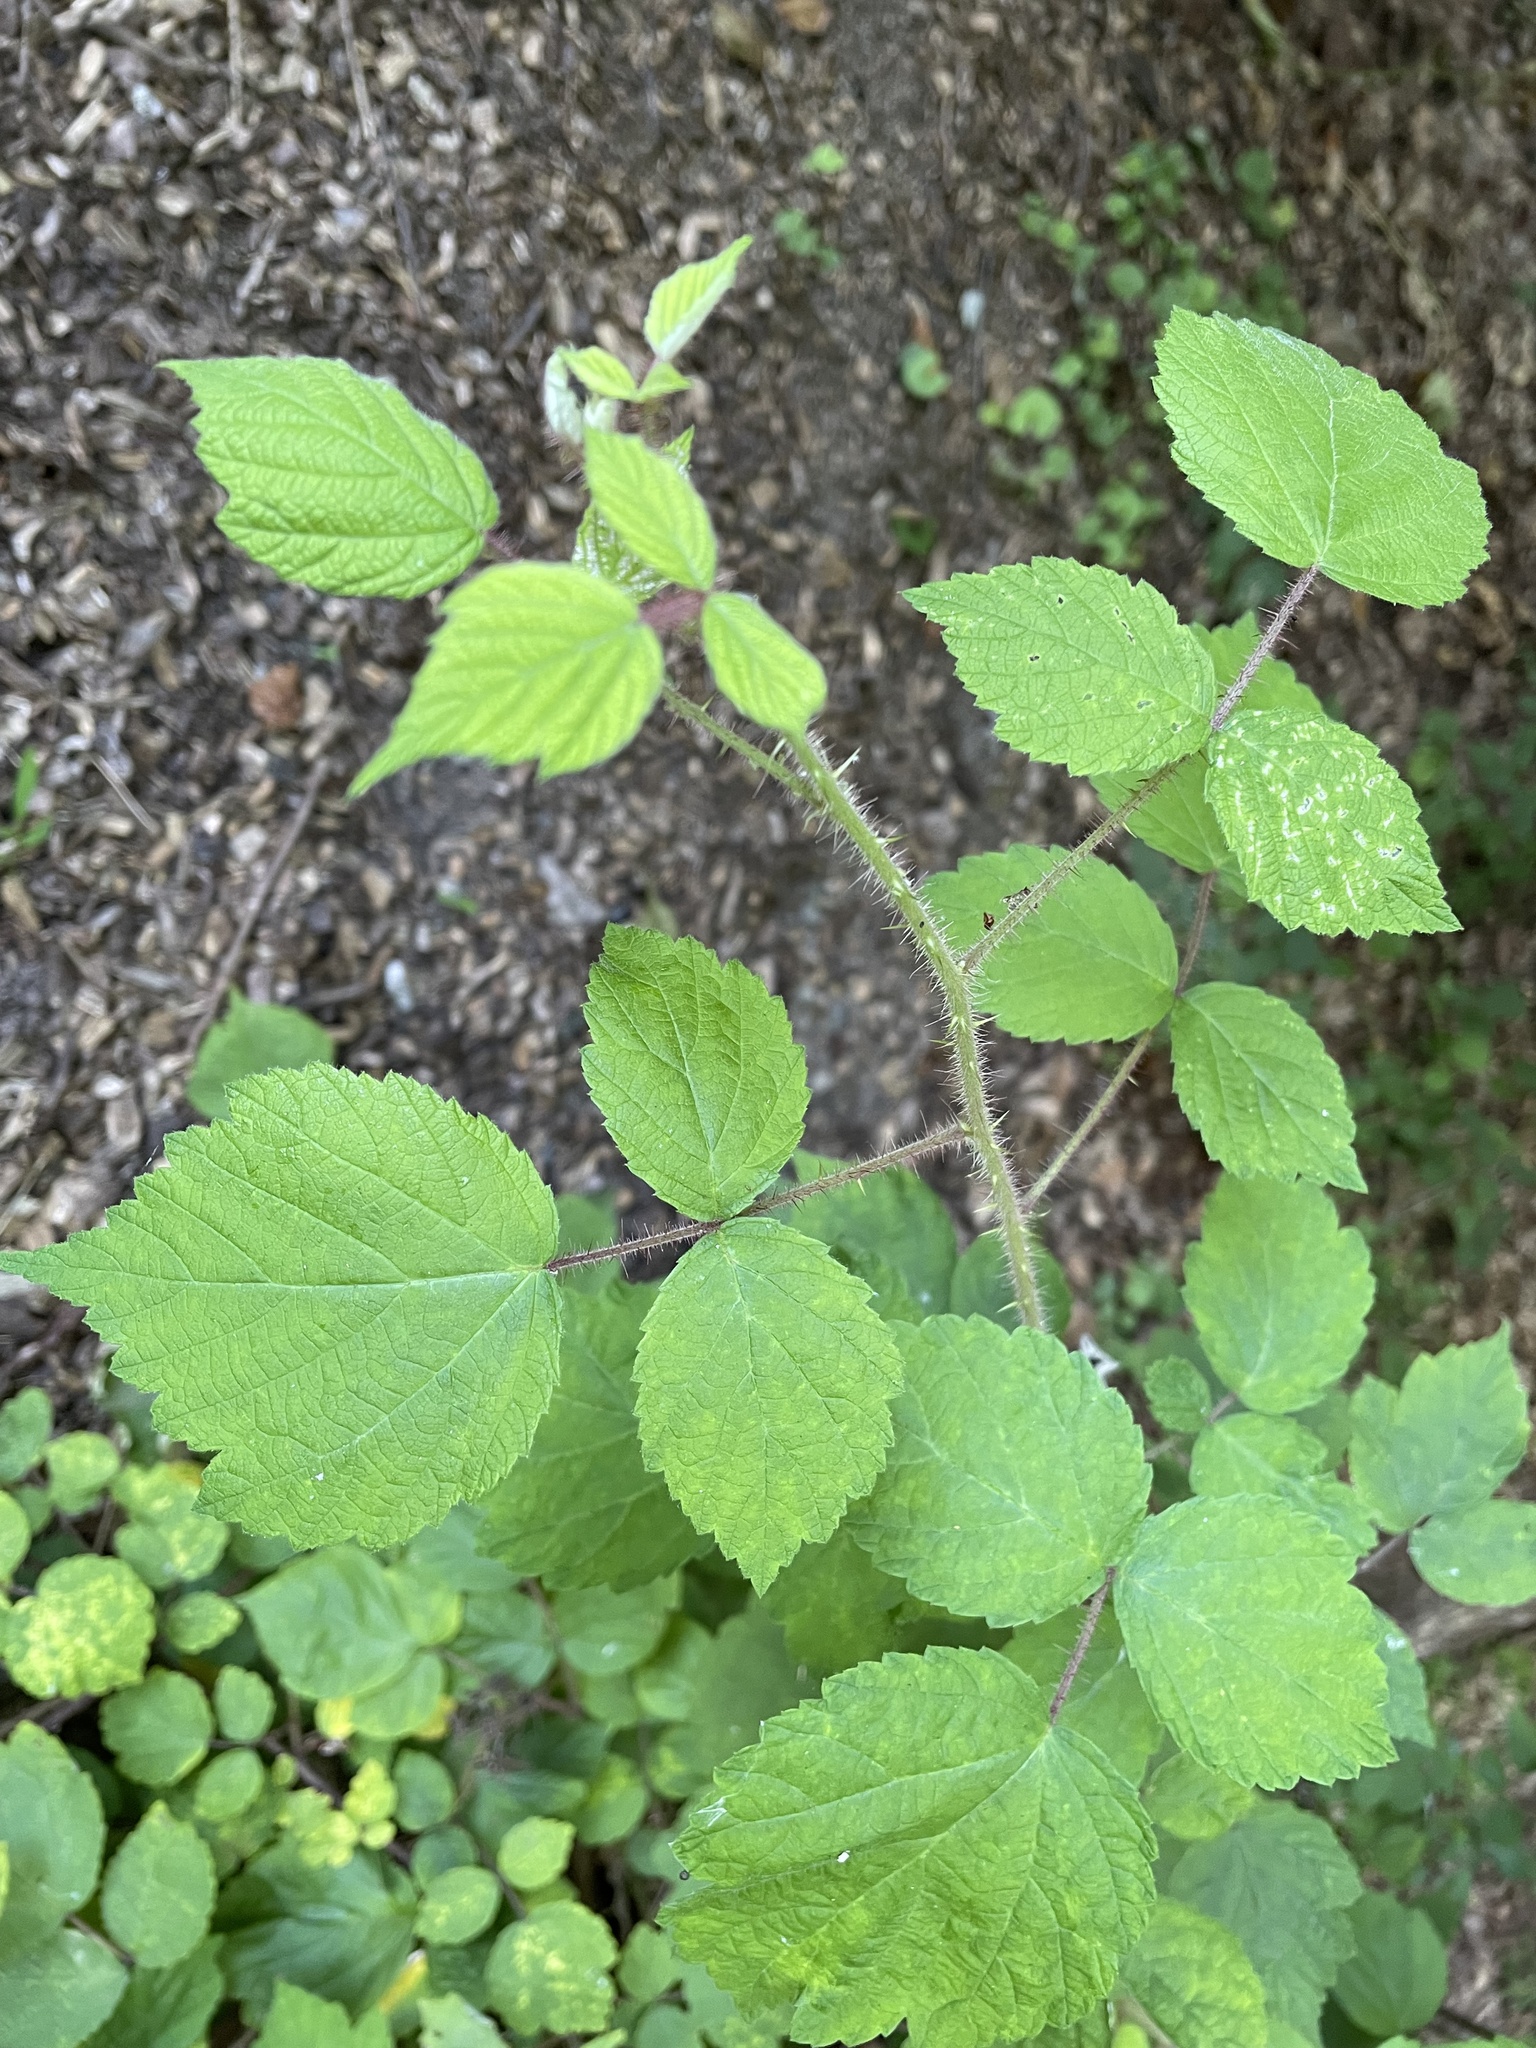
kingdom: Plantae
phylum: Tracheophyta
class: Magnoliopsida
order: Rosales
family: Rosaceae
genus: Rubus
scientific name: Rubus phoenicolasius
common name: Japanese wineberry
